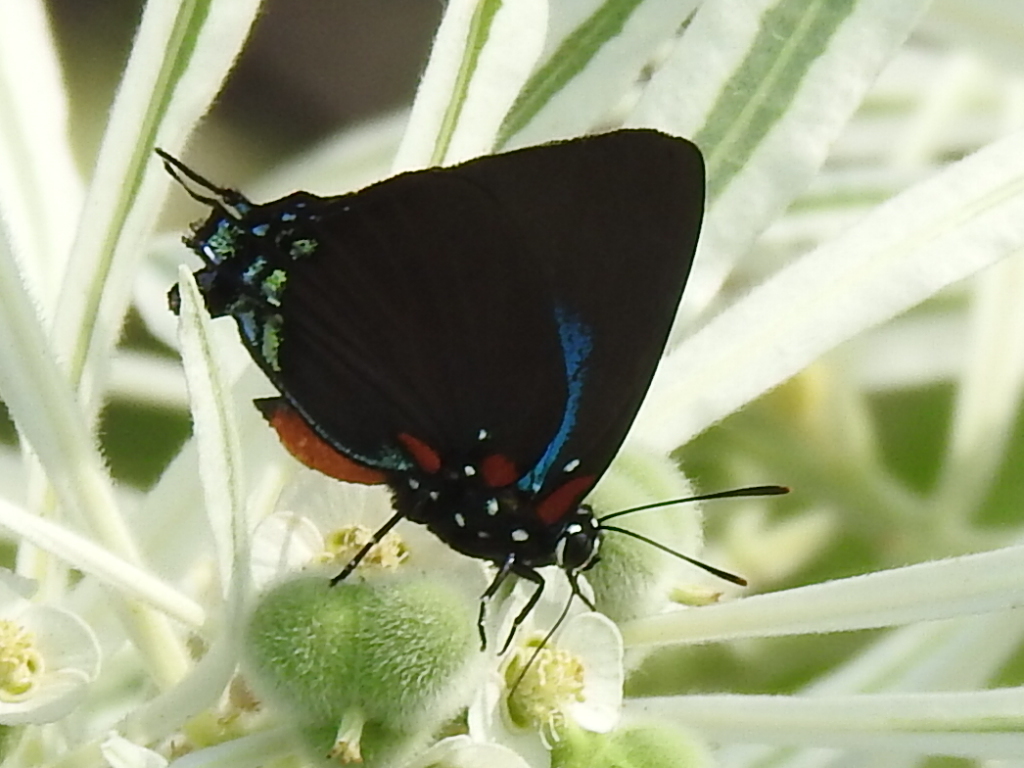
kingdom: Animalia
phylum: Arthropoda
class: Insecta
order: Lepidoptera
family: Lycaenidae
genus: Atlides
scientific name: Atlides halesus
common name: Great purple hairstreak
